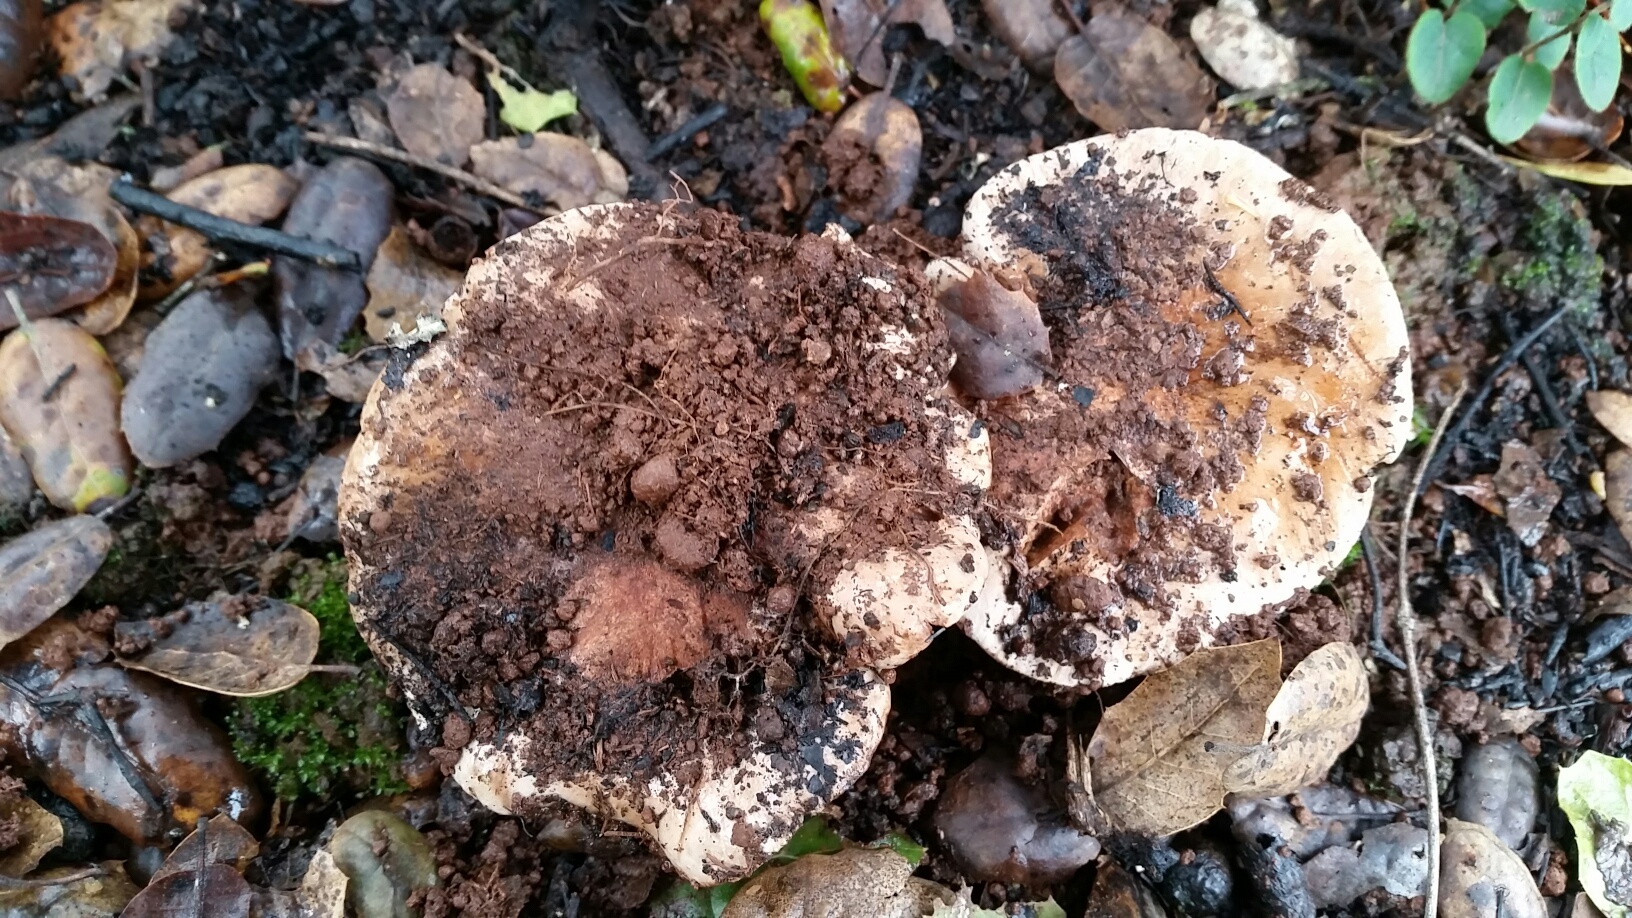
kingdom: Fungi
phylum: Basidiomycota
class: Agaricomycetes
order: Agaricales
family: Tricholomataceae
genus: Melanoleuca
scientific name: Melanoleuca dryophila
